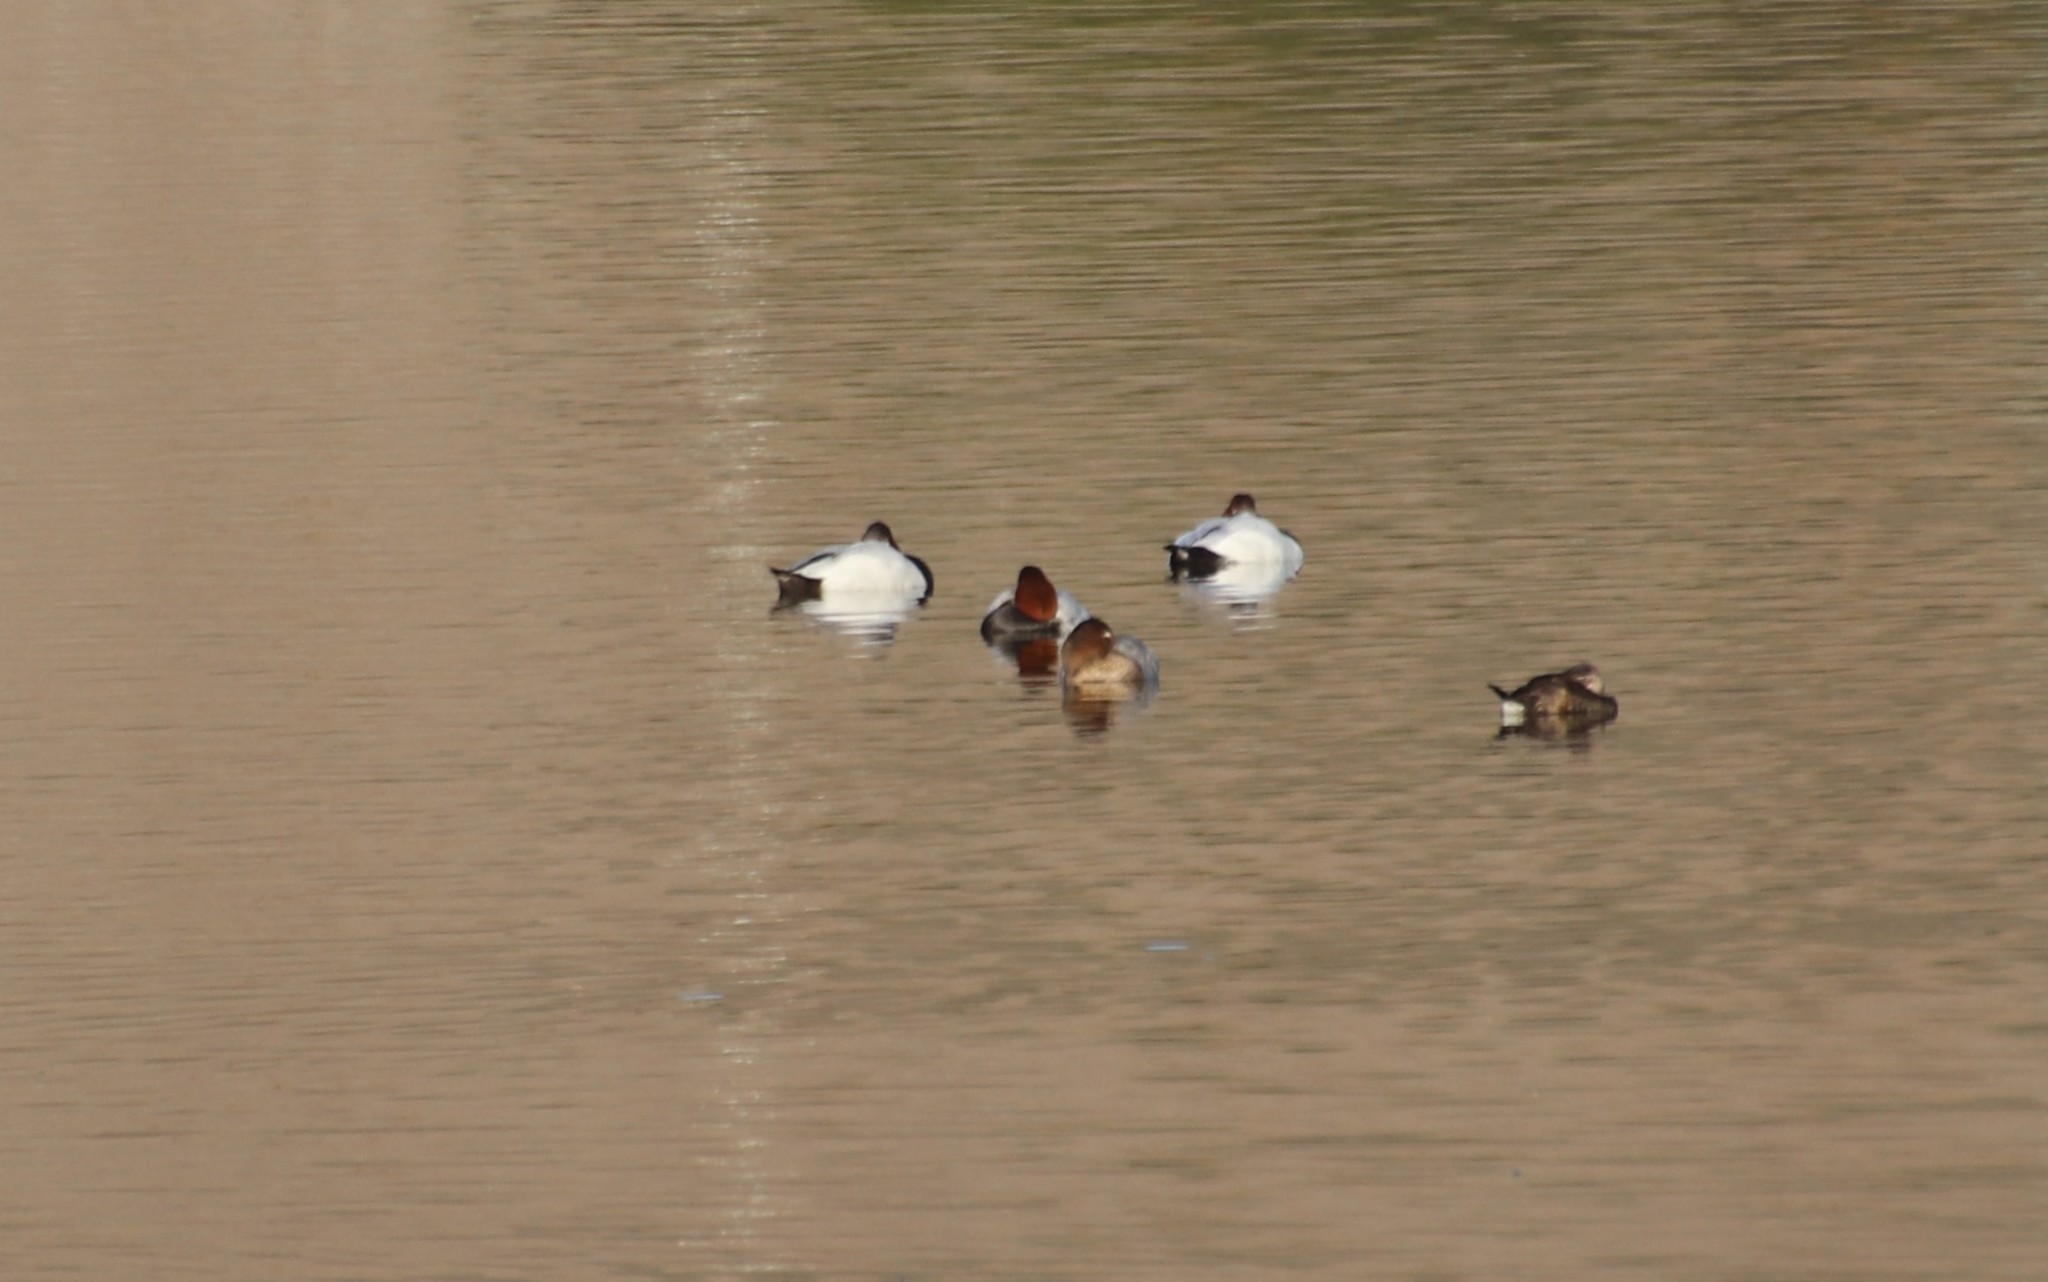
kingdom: Animalia
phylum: Chordata
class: Aves
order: Anseriformes
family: Anatidae
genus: Aythya
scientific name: Aythya valisineria
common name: Canvasback
